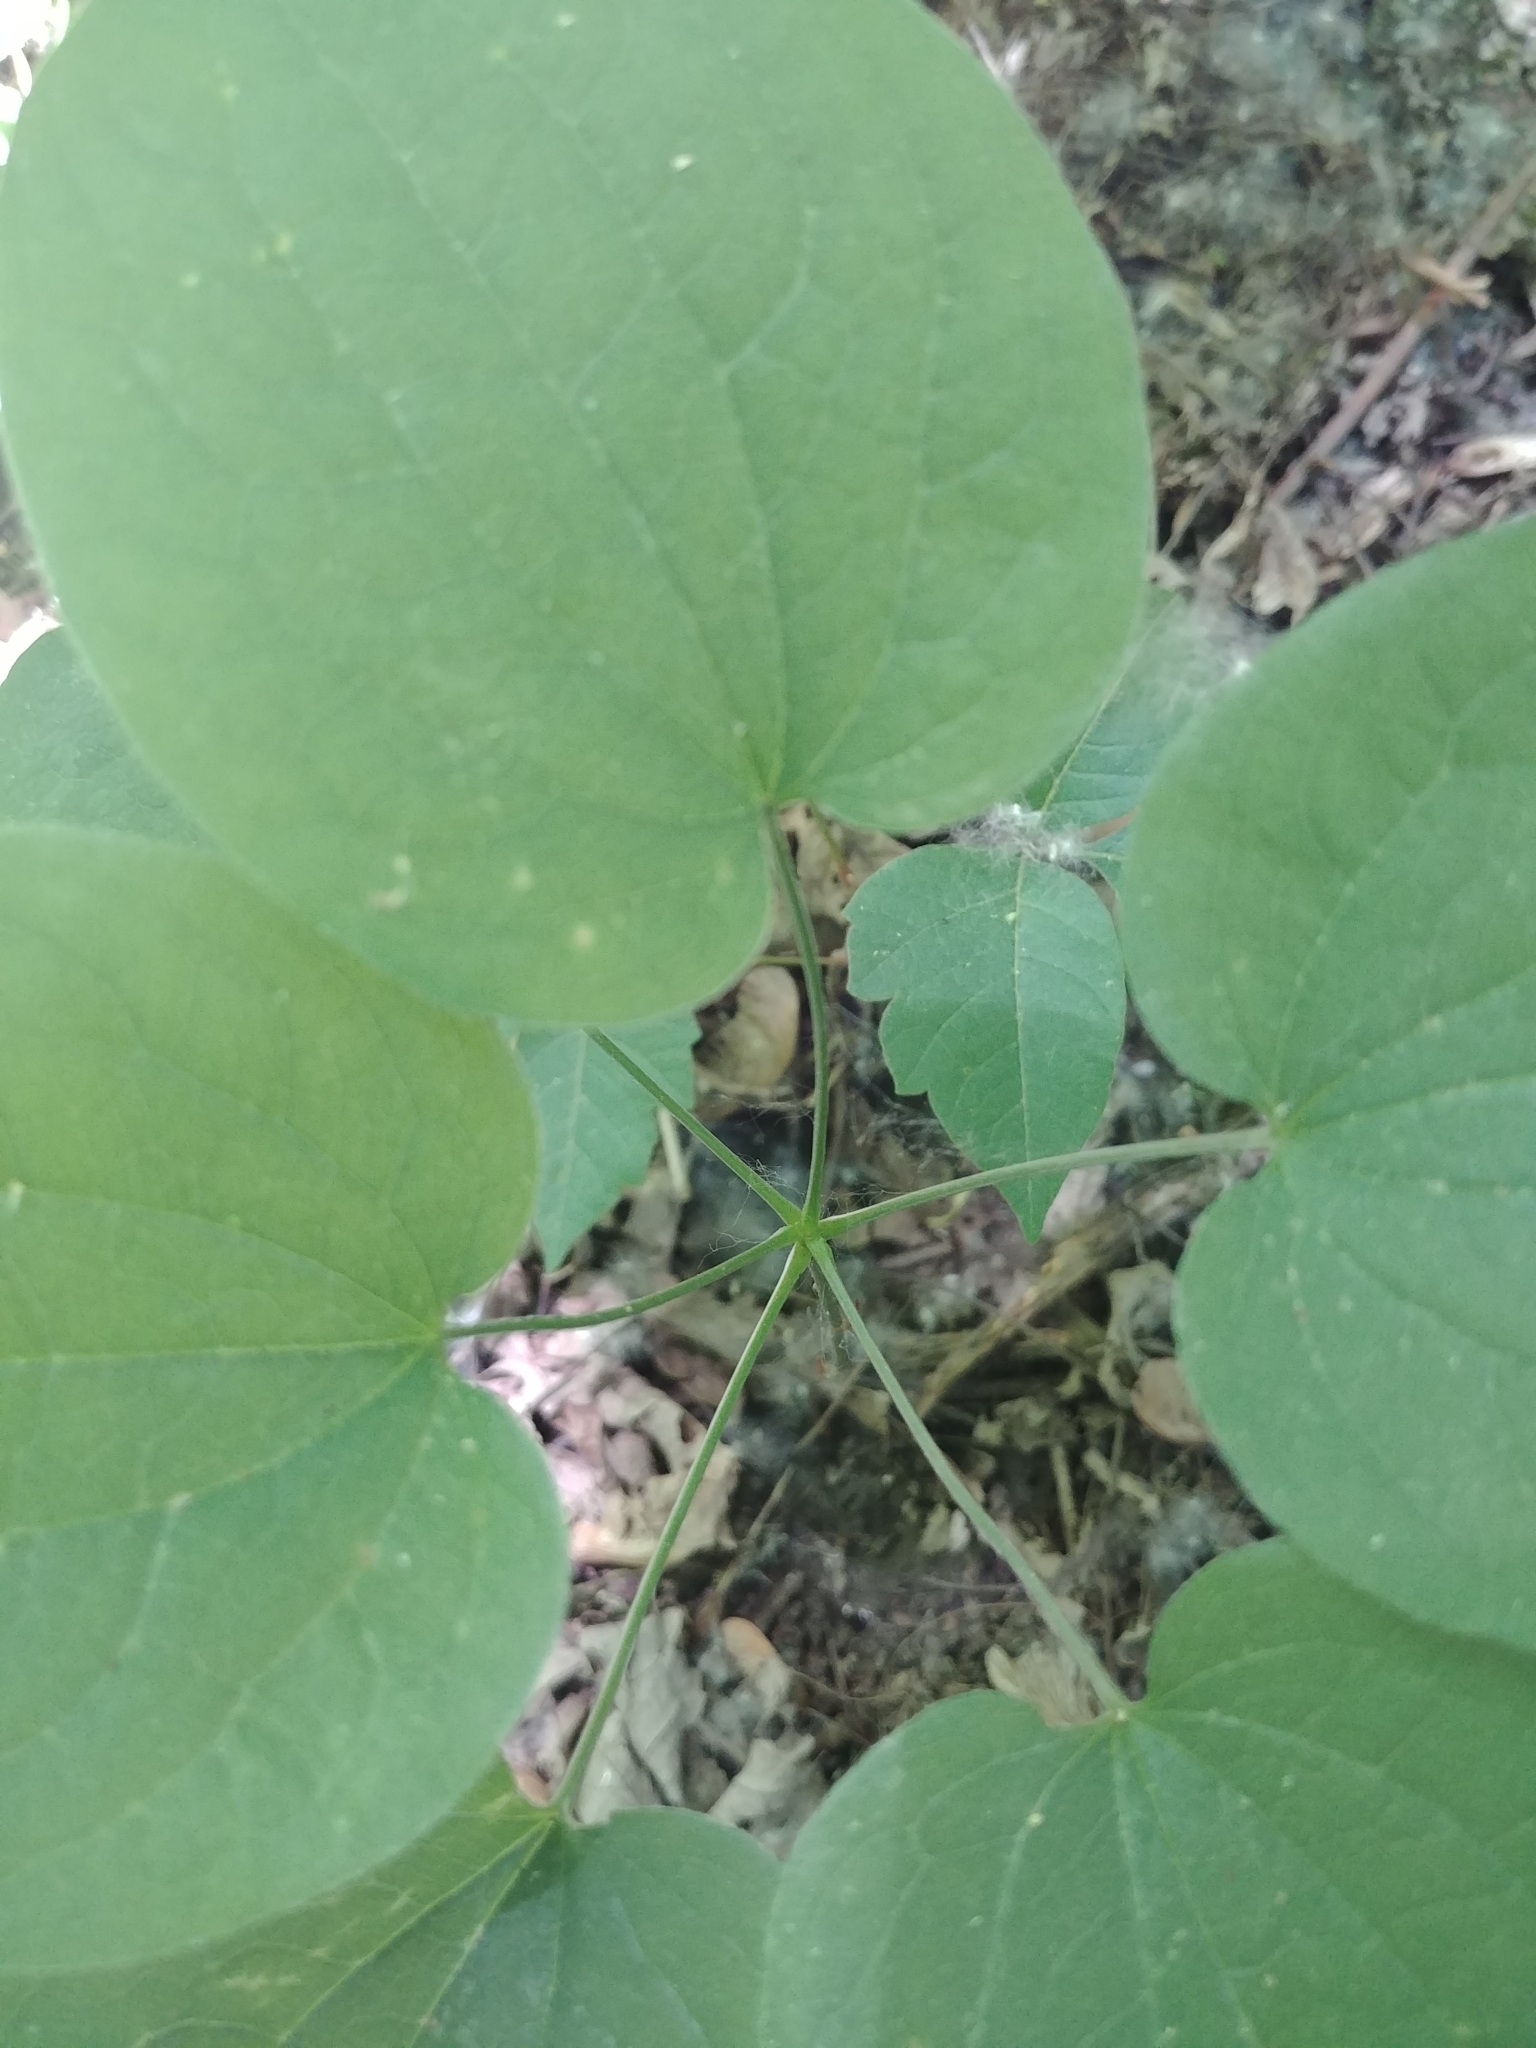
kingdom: Plantae
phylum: Tracheophyta
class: Liliopsida
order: Liliales
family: Smilacaceae
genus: Smilax
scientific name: Smilax herbacea
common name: Jacob's-ladder
